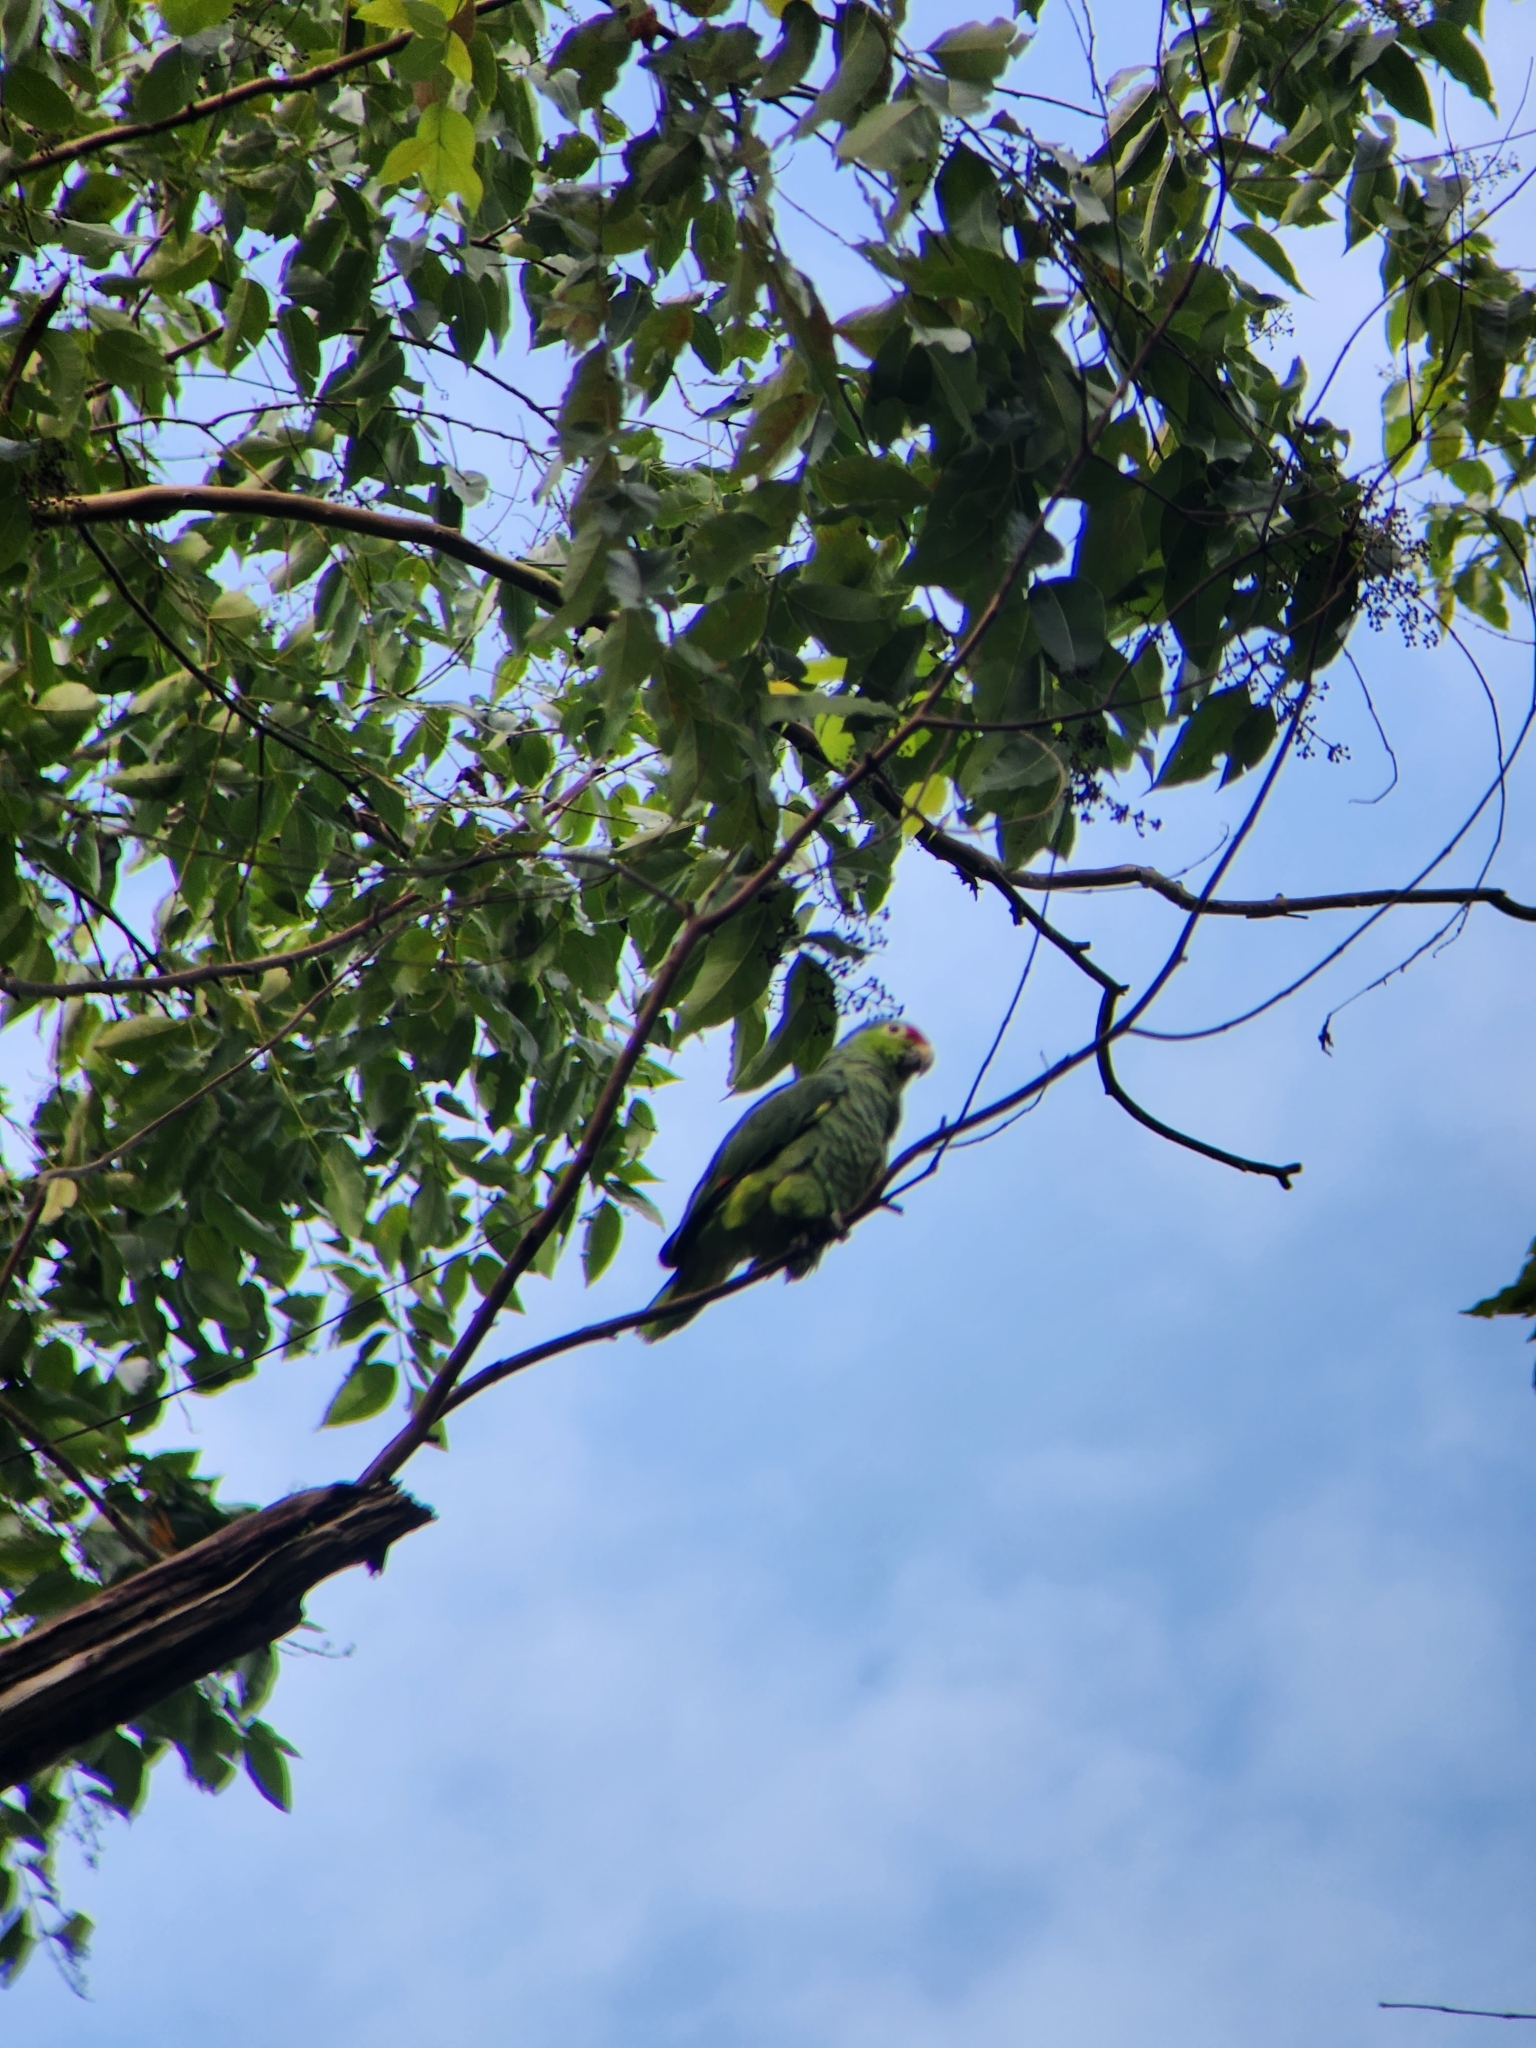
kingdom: Animalia
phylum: Chordata
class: Aves
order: Psittaciformes
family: Psittacidae
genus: Amazona
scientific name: Amazona autumnalis
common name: Red-lored amazon
